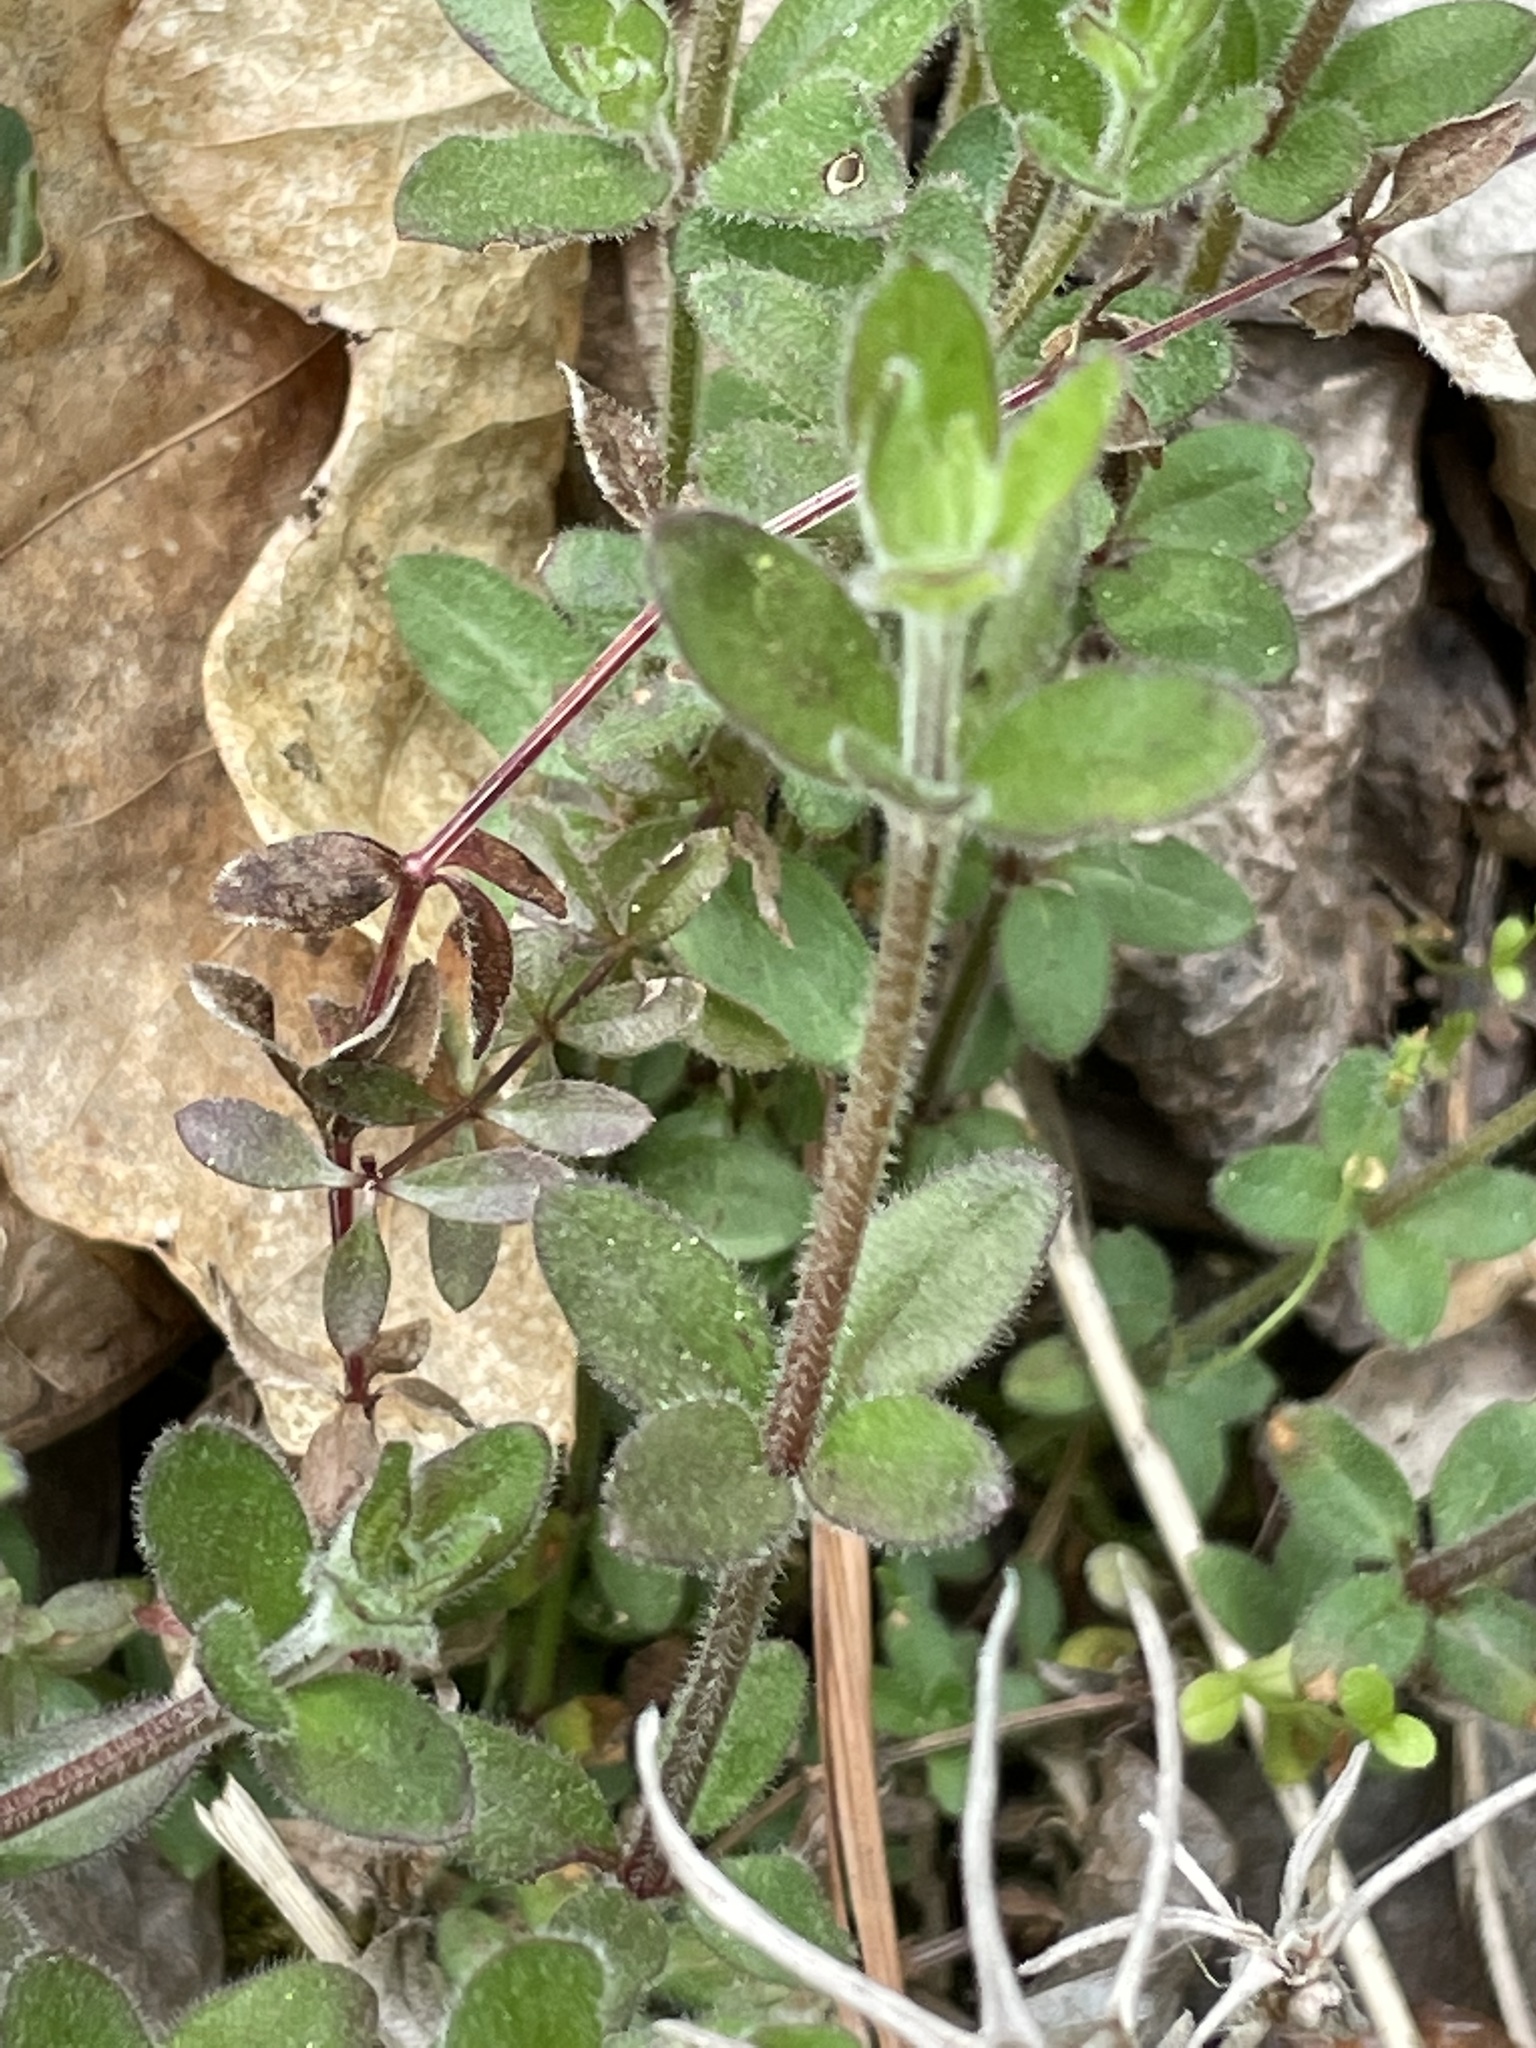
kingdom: Plantae
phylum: Tracheophyta
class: Magnoliopsida
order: Gentianales
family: Rubiaceae
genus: Galium
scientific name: Galium pilosum
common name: Hairy bedstraw
